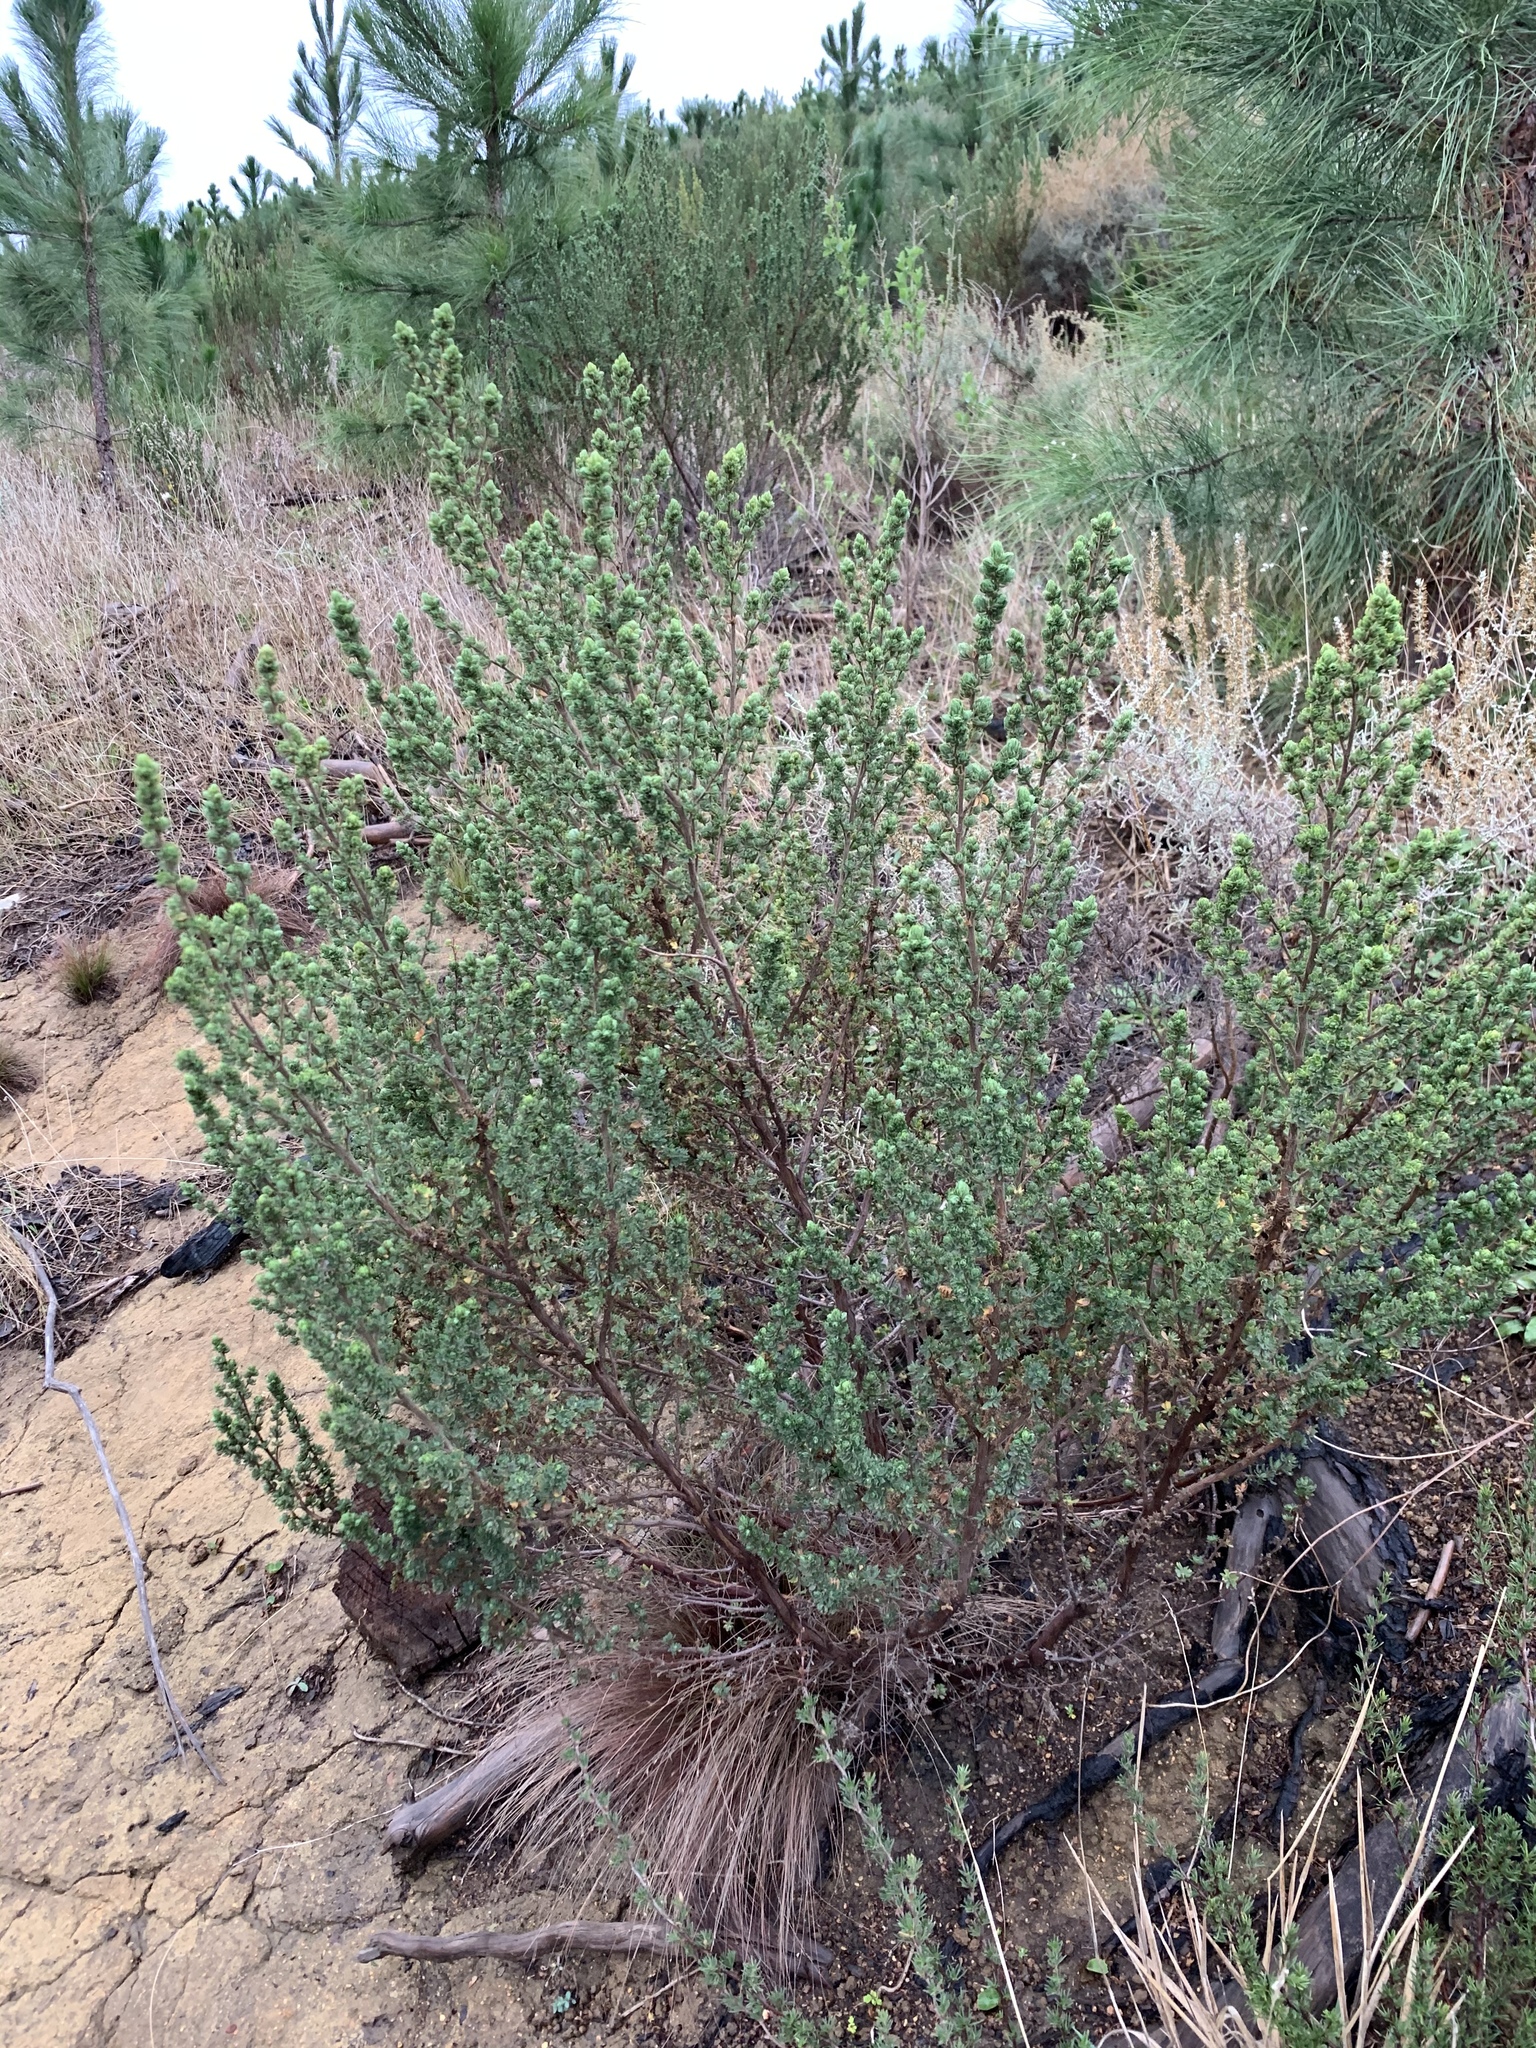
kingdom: Plantae
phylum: Tracheophyta
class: Magnoliopsida
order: Rosales
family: Rosaceae
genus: Cliffortia
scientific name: Cliffortia polygonifolia
